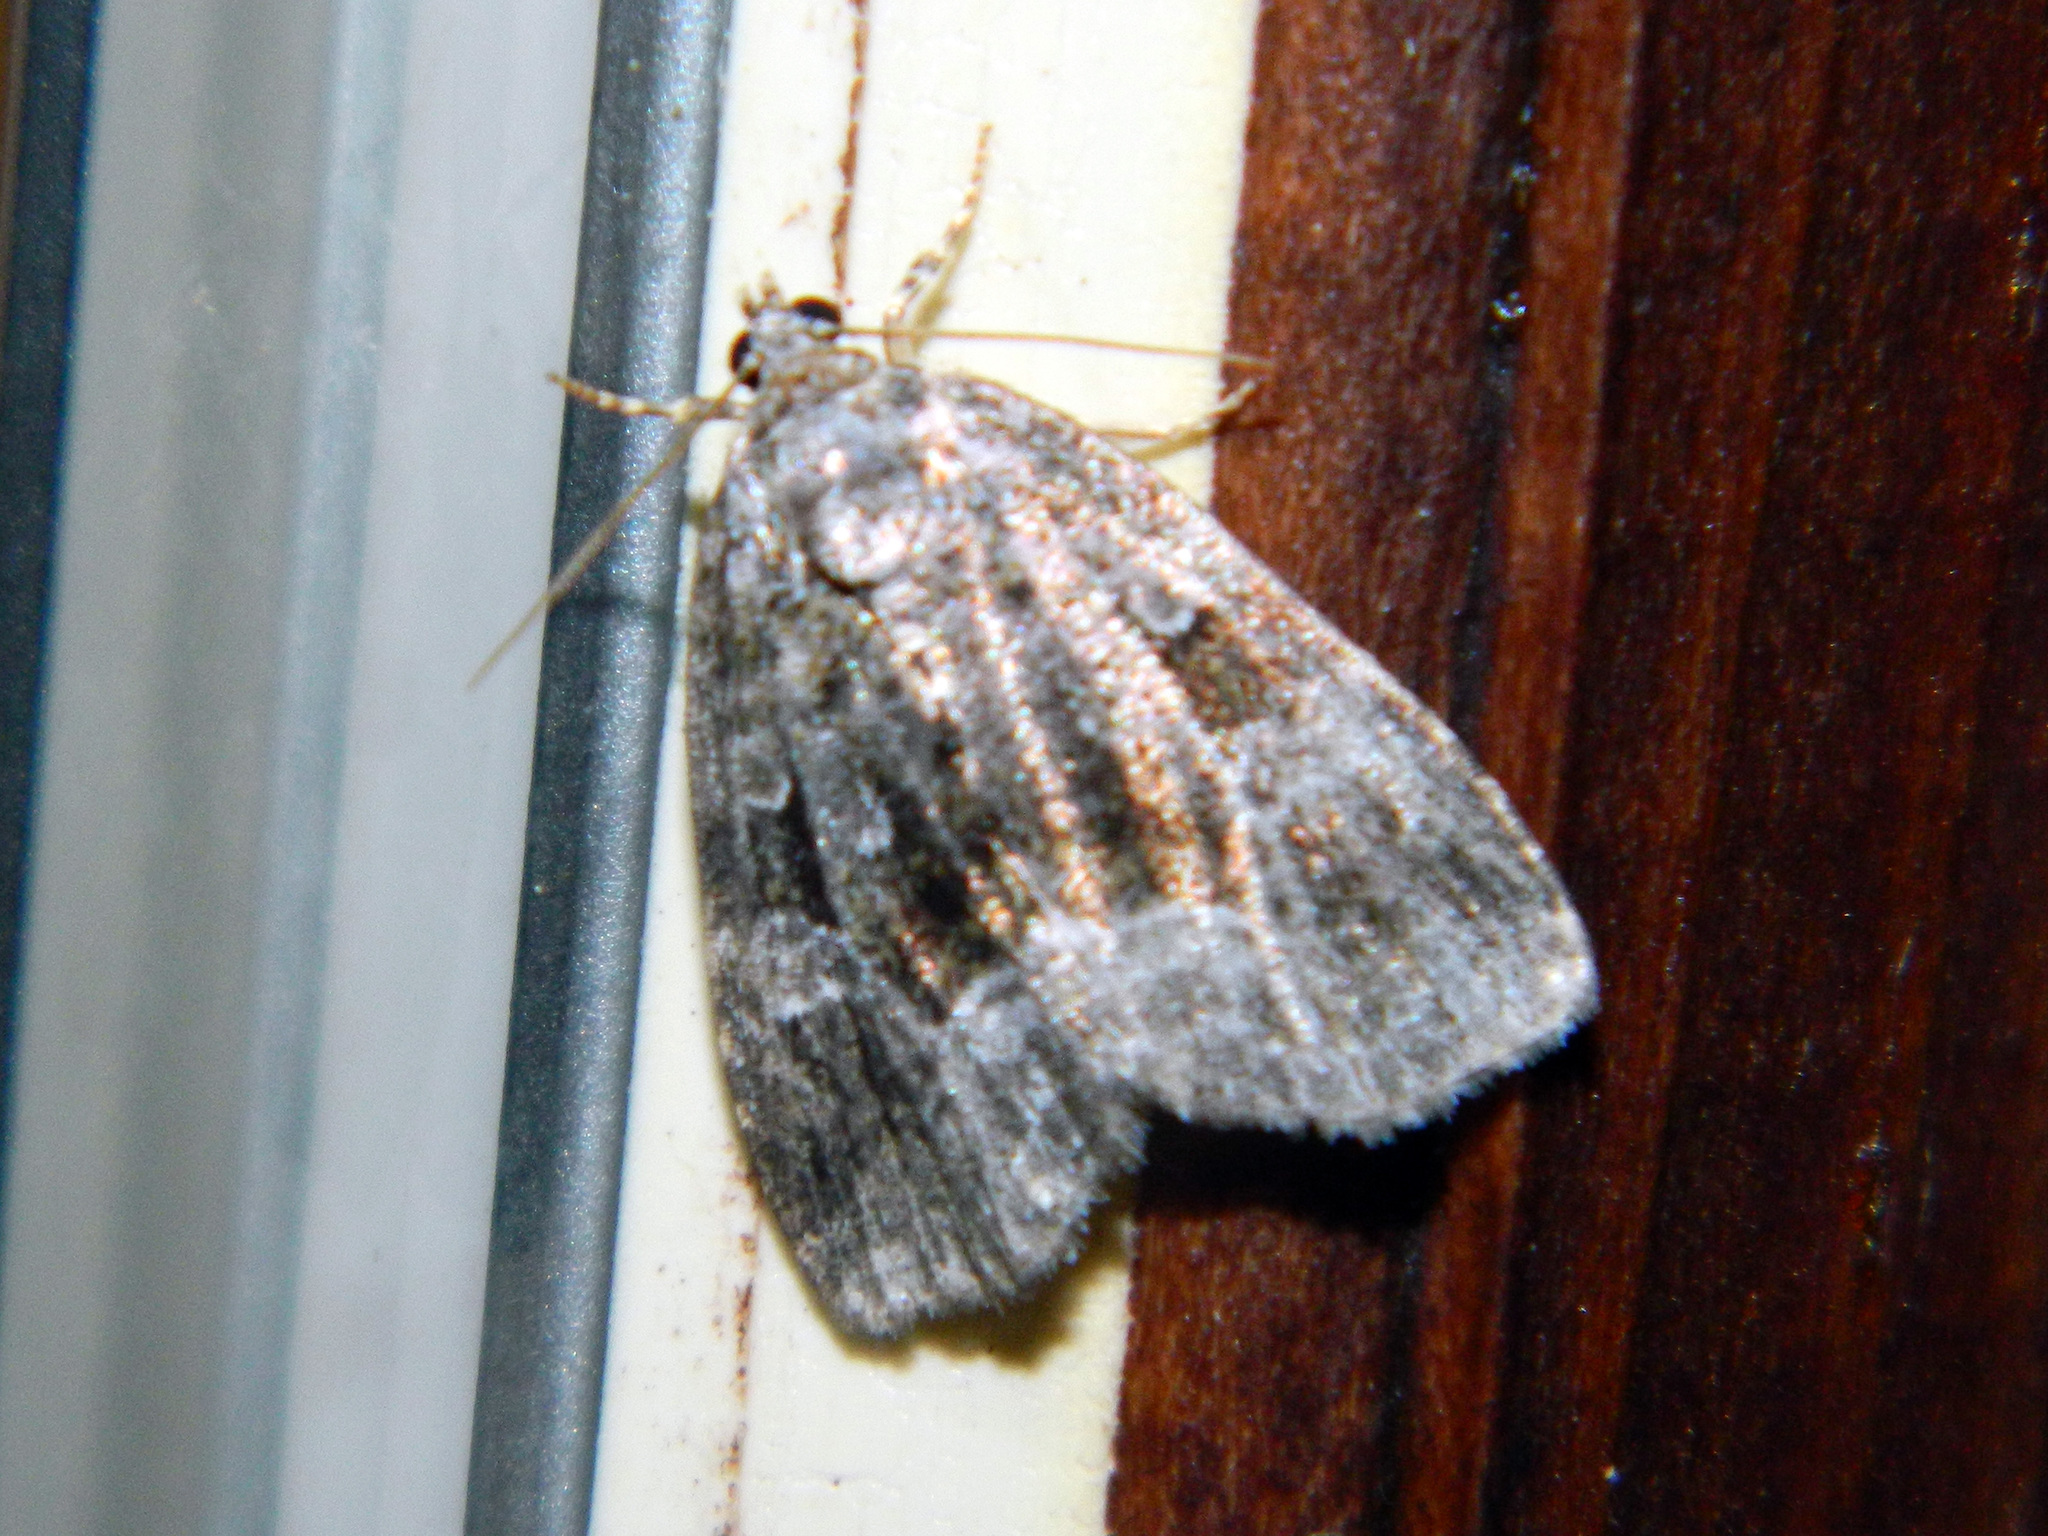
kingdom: Animalia
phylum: Arthropoda
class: Insecta
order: Lepidoptera
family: Noctuidae
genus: Protodeltote
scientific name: Protodeltote muscosula
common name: Large mossy glyph
